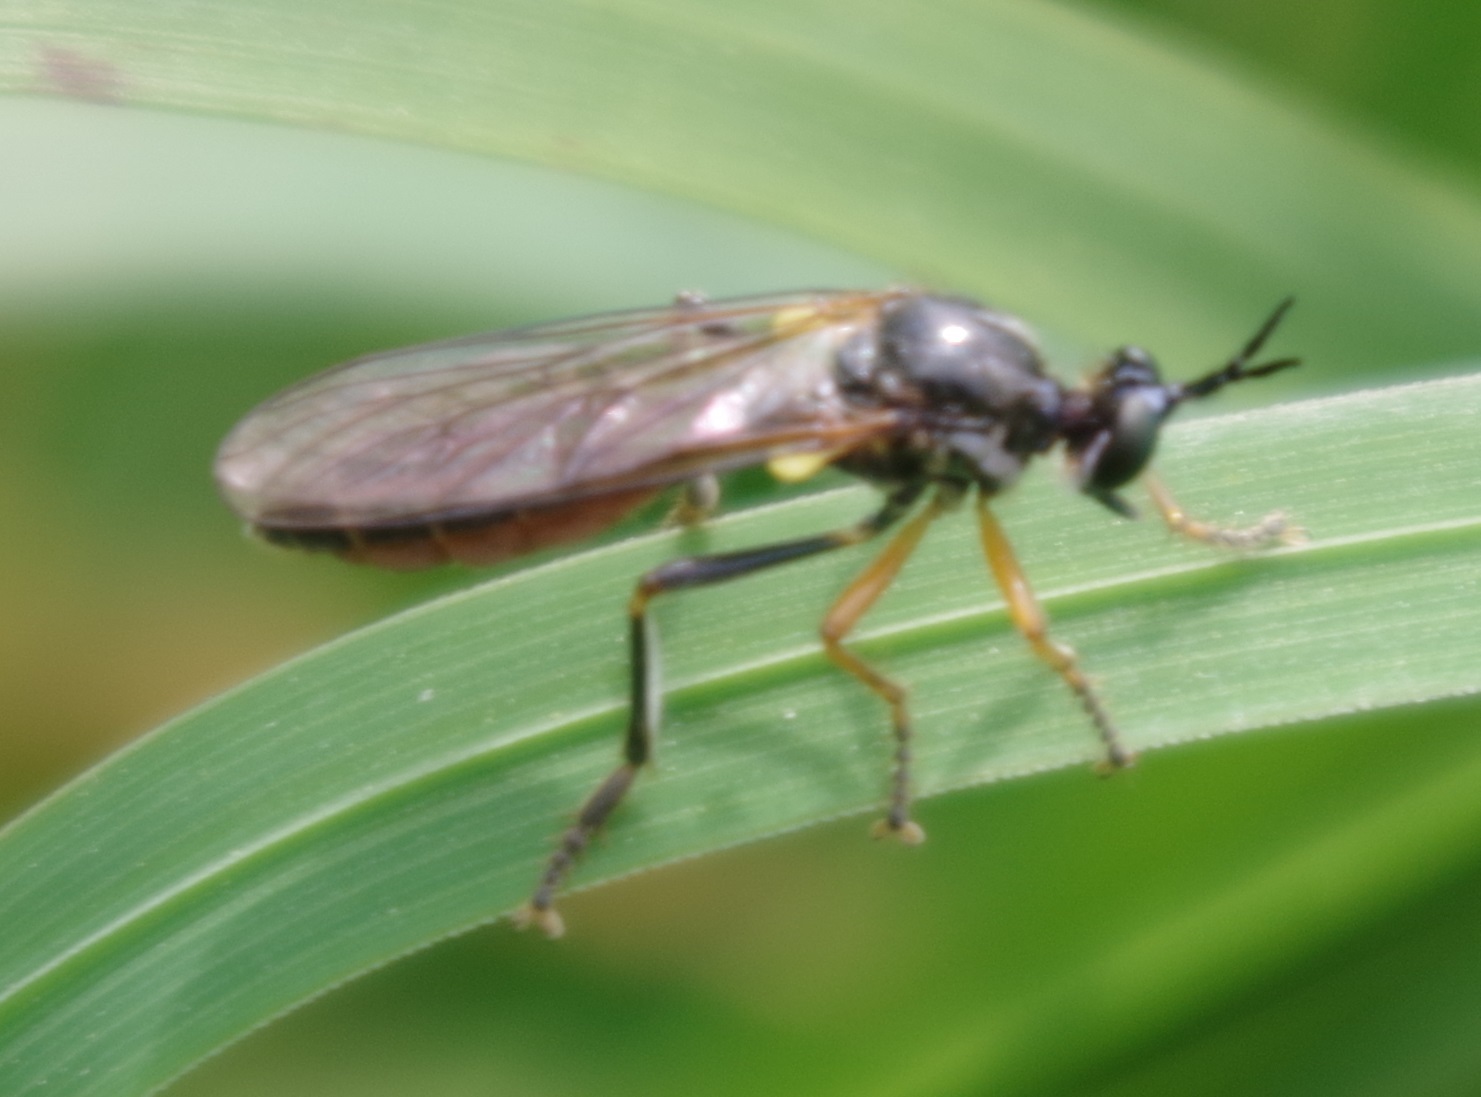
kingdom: Animalia
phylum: Arthropoda
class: Insecta
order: Diptera
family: Asilidae
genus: Dioctria
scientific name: Dioctria rufipes
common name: Common red-legged robberfly
